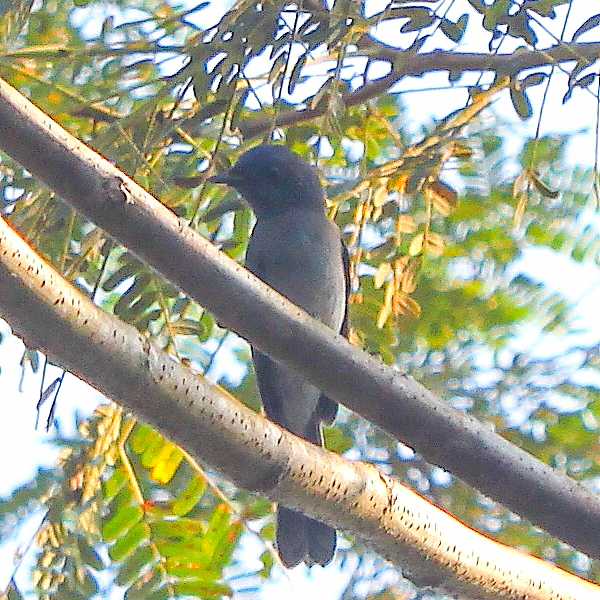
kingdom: Animalia
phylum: Chordata
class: Aves
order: Passeriformes
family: Monarchidae
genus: Hypothymis
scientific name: Hypothymis azurea
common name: Black-naped monarch
